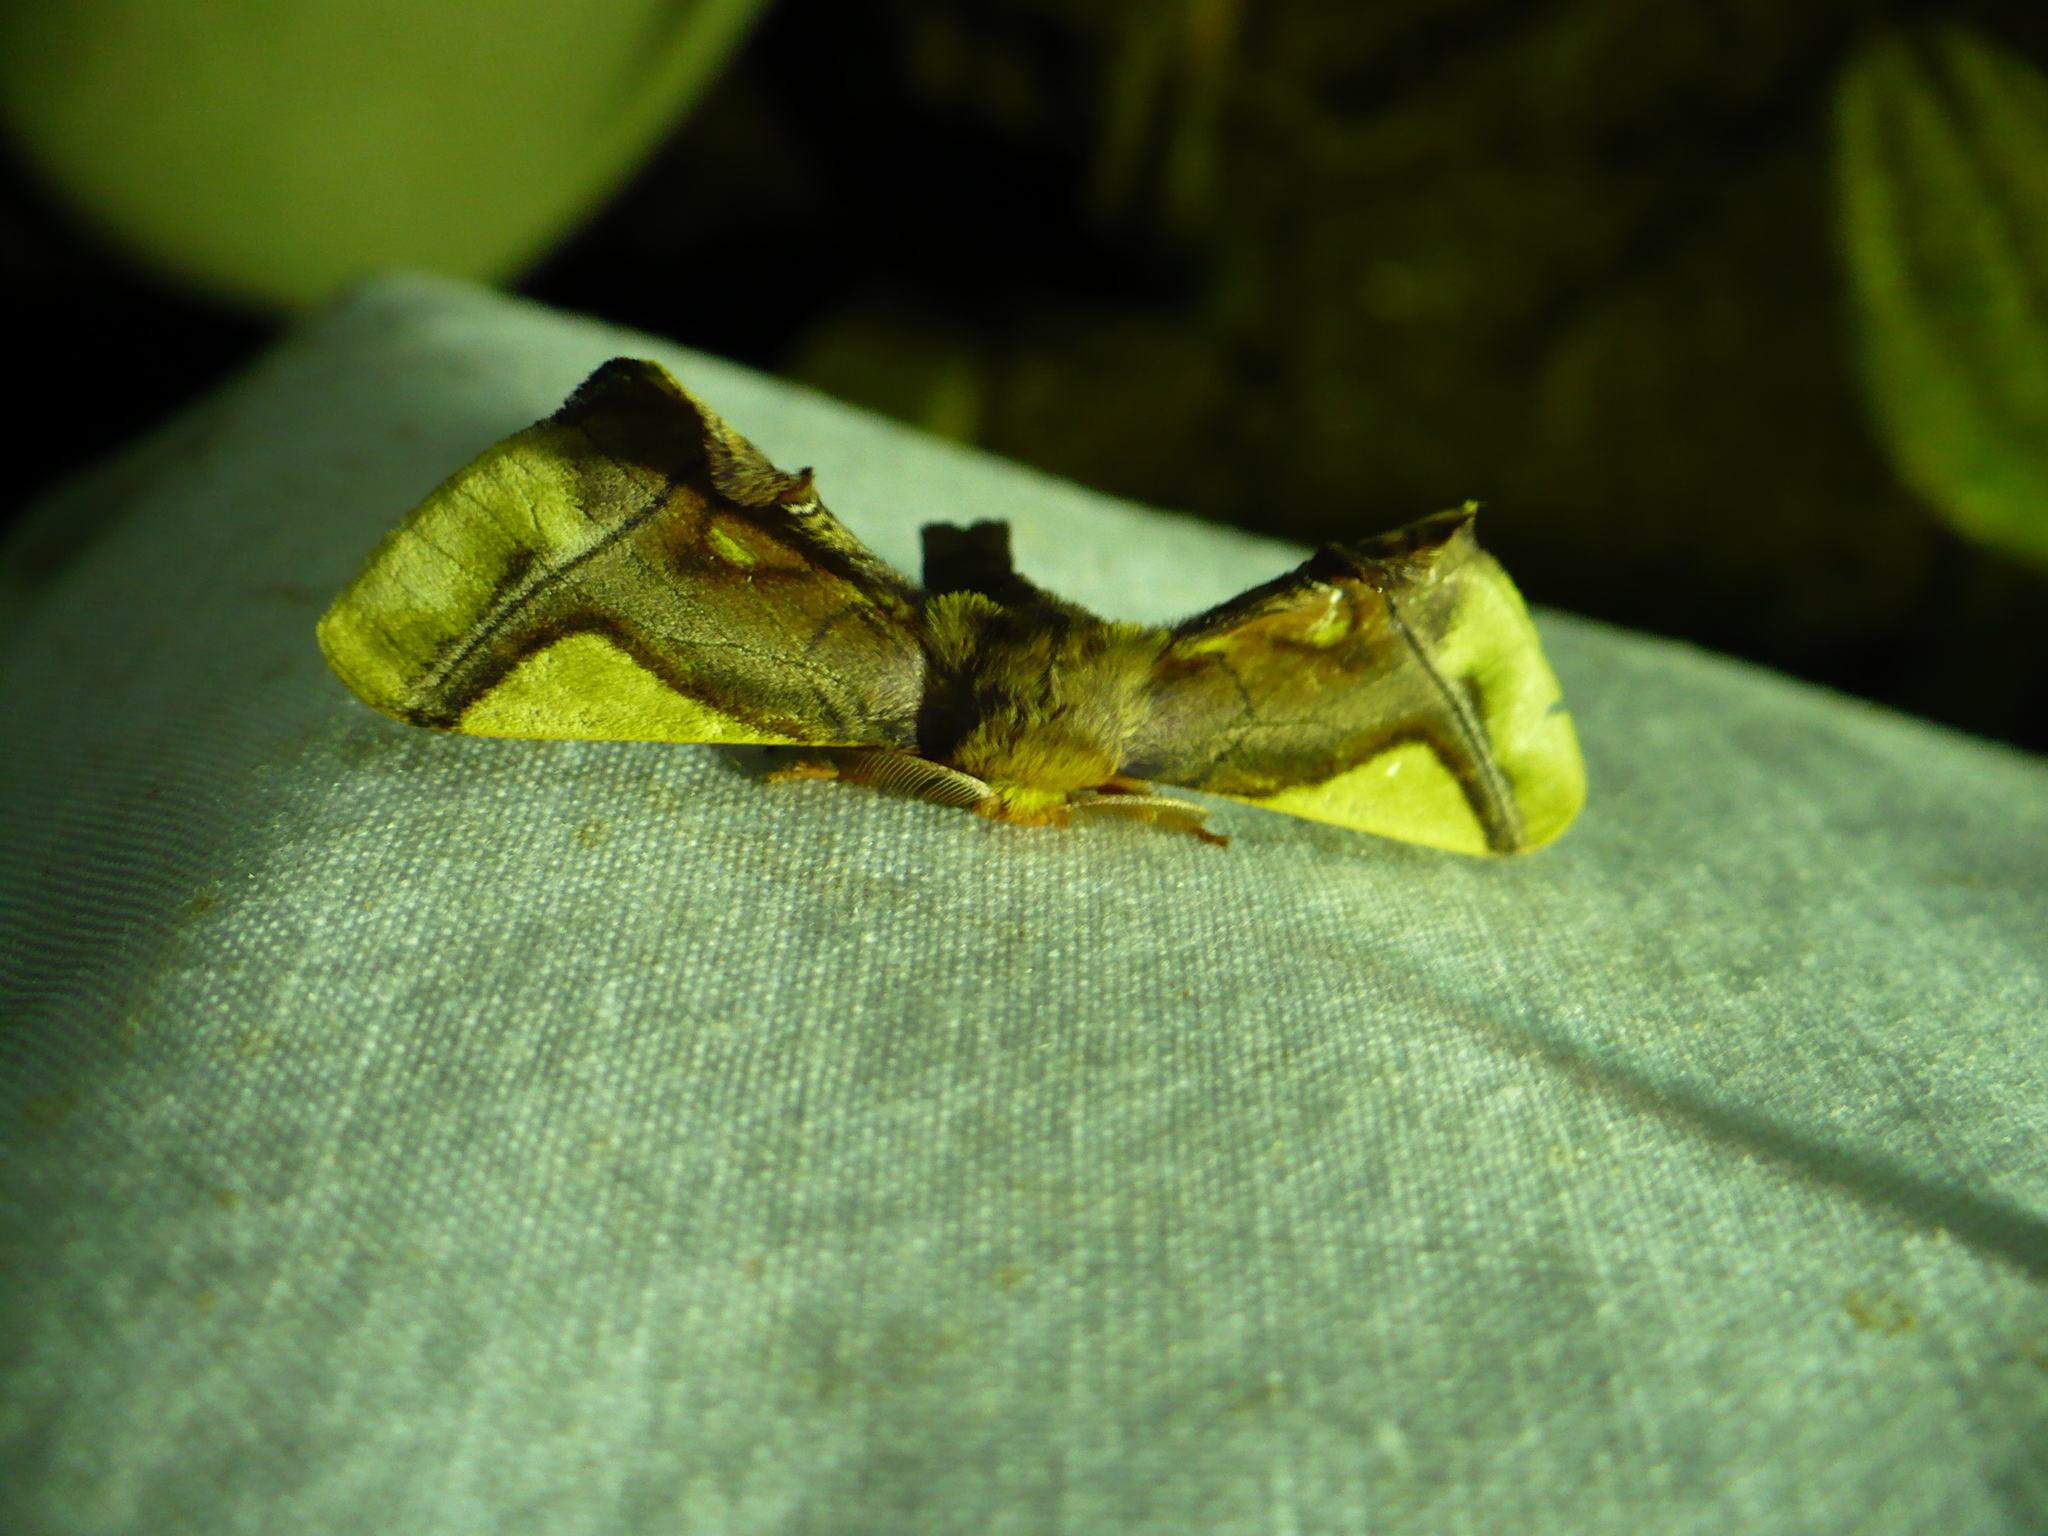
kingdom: Animalia
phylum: Arthropoda
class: Insecta
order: Lepidoptera
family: Bombycidae
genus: Epia
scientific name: Epia muscosa
